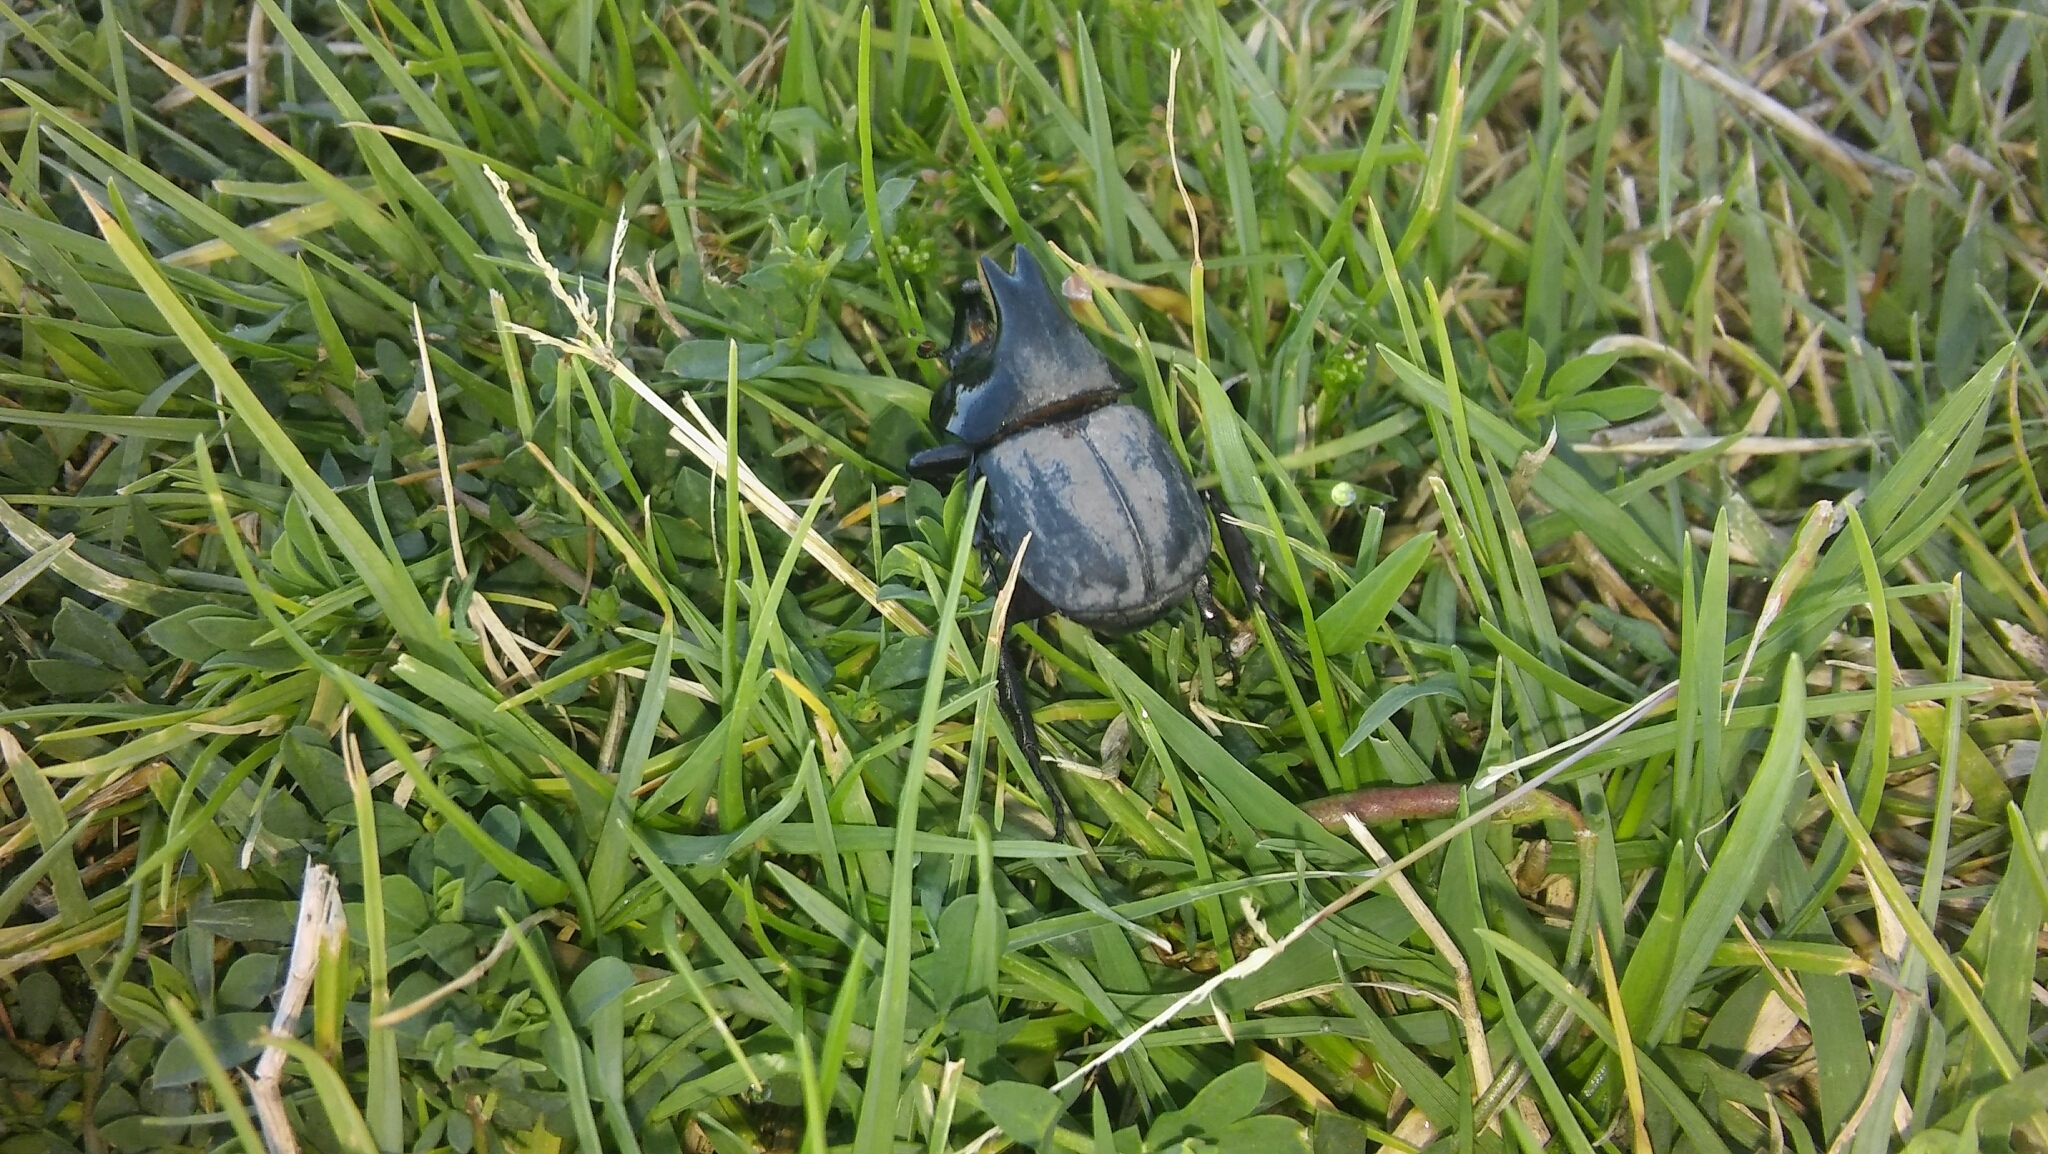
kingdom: Animalia
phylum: Arthropoda
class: Insecta
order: Coleoptera
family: Scarabaeidae
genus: Diloboderus
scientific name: Diloboderus abderus
